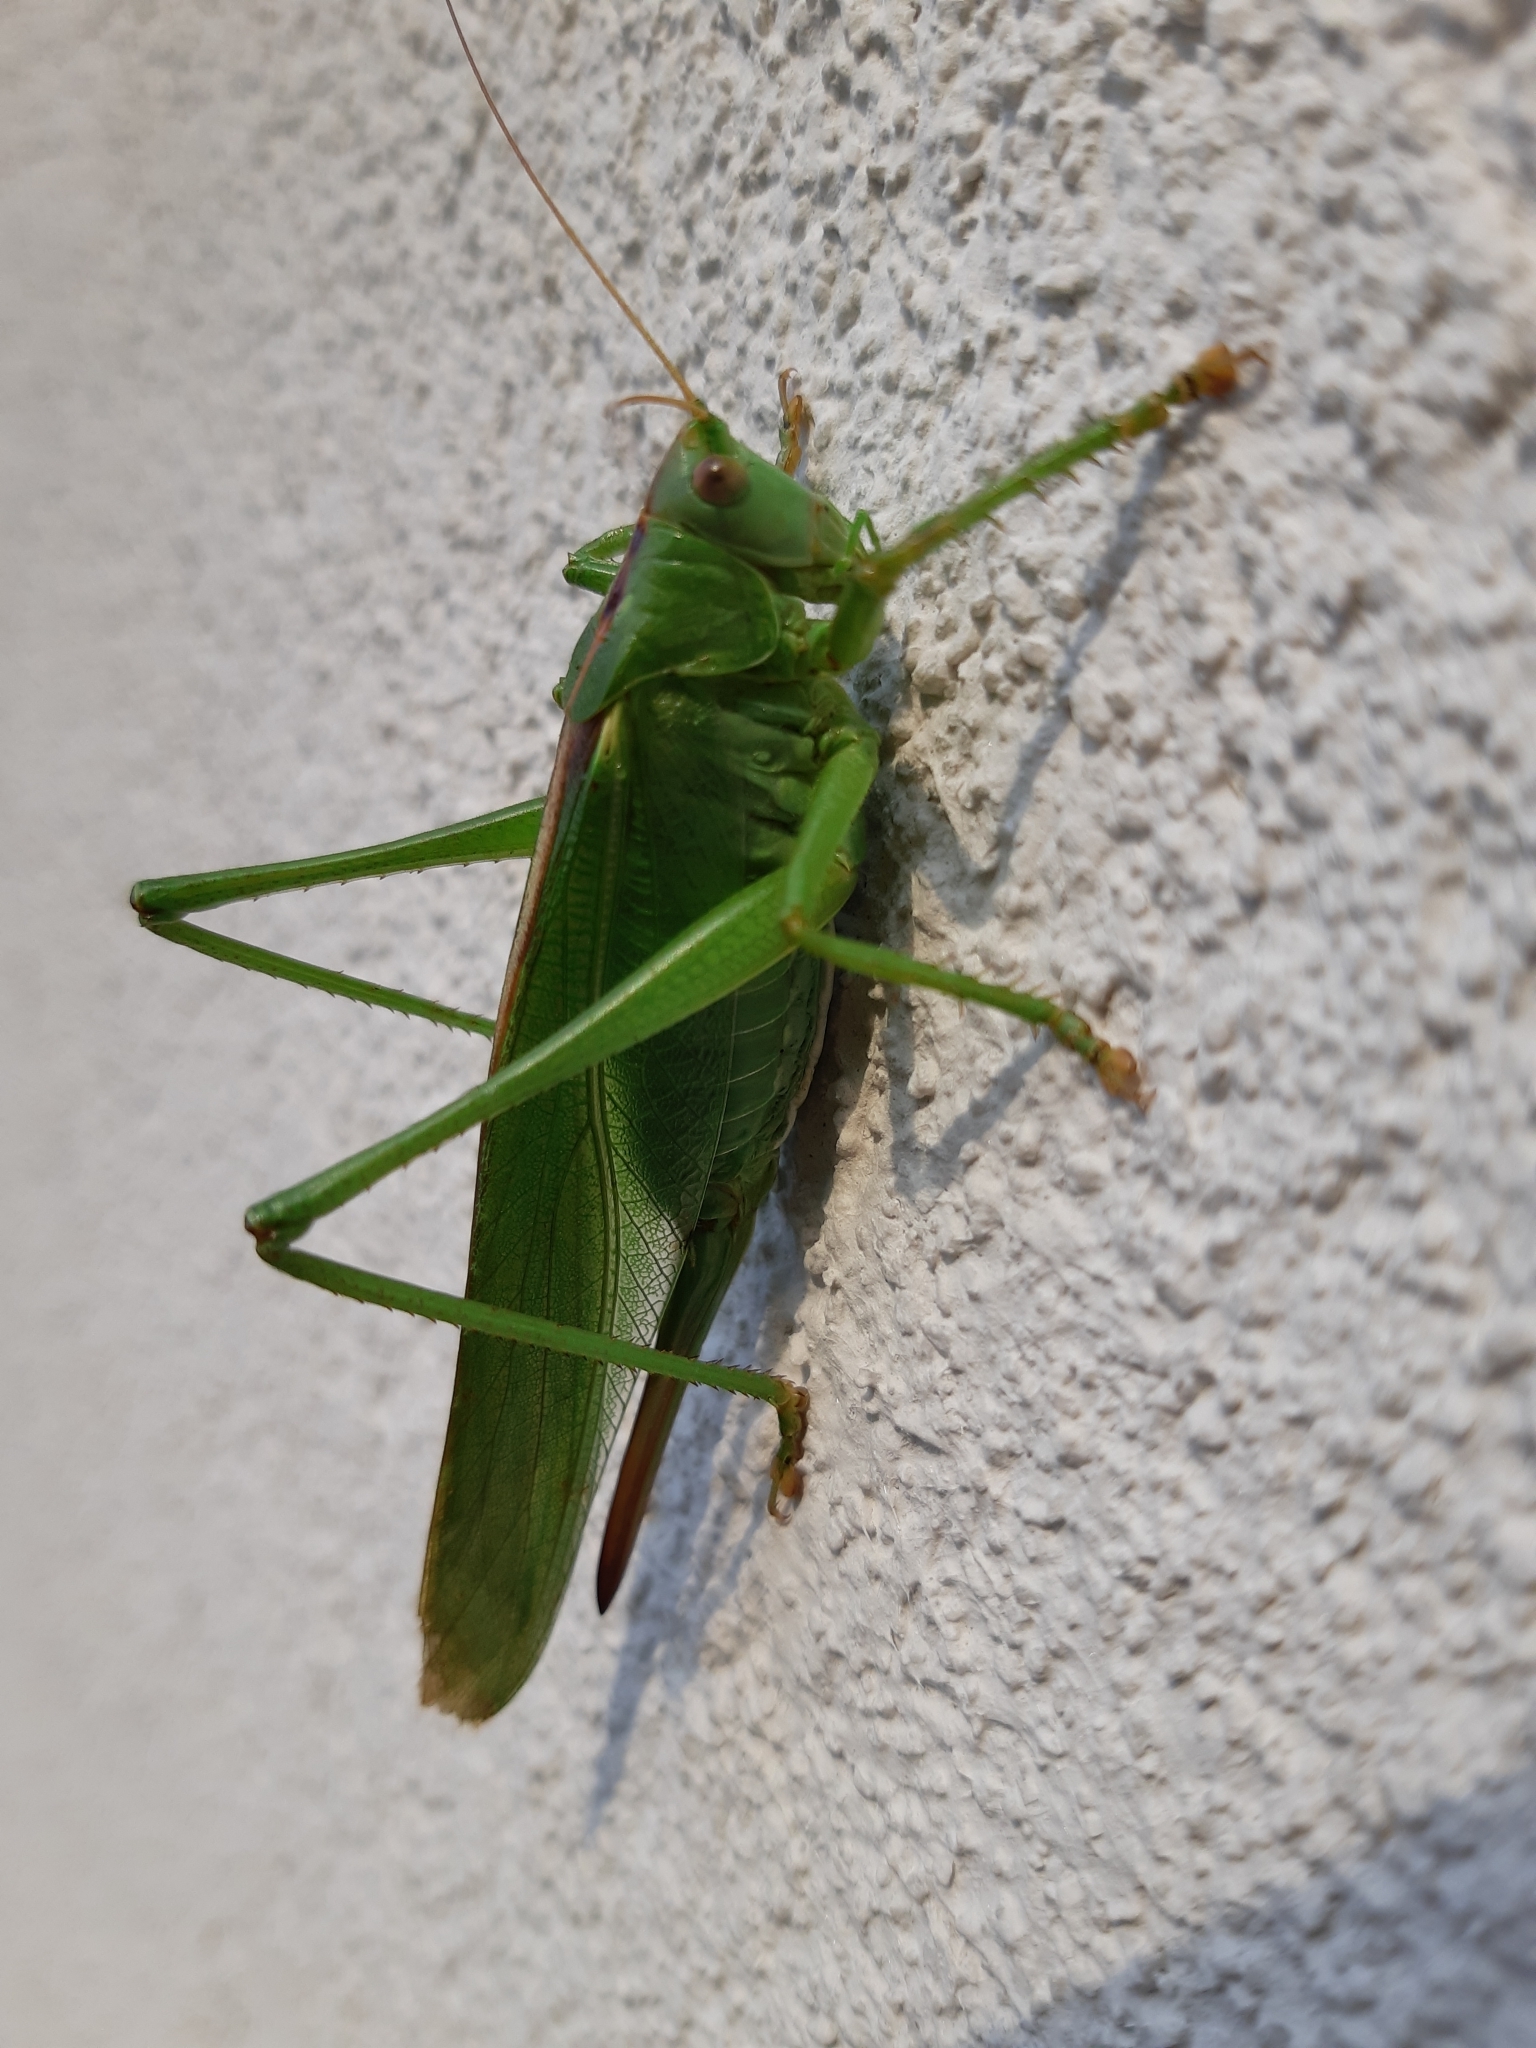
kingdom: Animalia
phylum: Arthropoda
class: Insecta
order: Orthoptera
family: Tettigoniidae
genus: Tettigonia
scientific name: Tettigonia viridissima
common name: Great green bush-cricket
